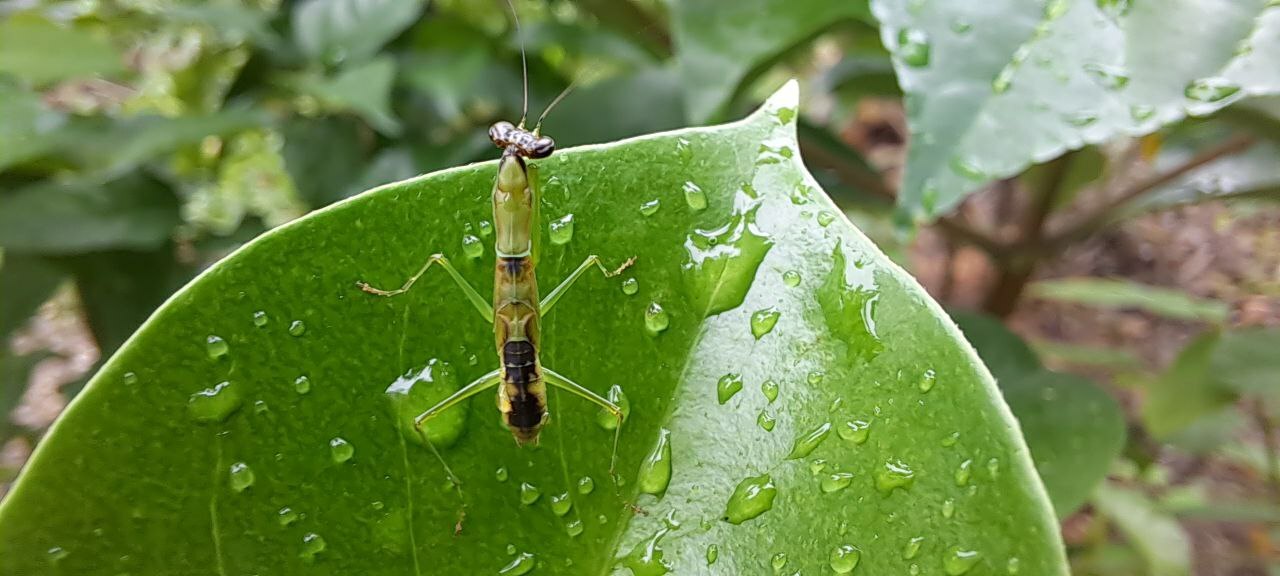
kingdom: Animalia
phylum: Arthropoda
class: Insecta
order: Mantodea
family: Hymenopodidae
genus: Odontomantis
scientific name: Odontomantis planiceps
